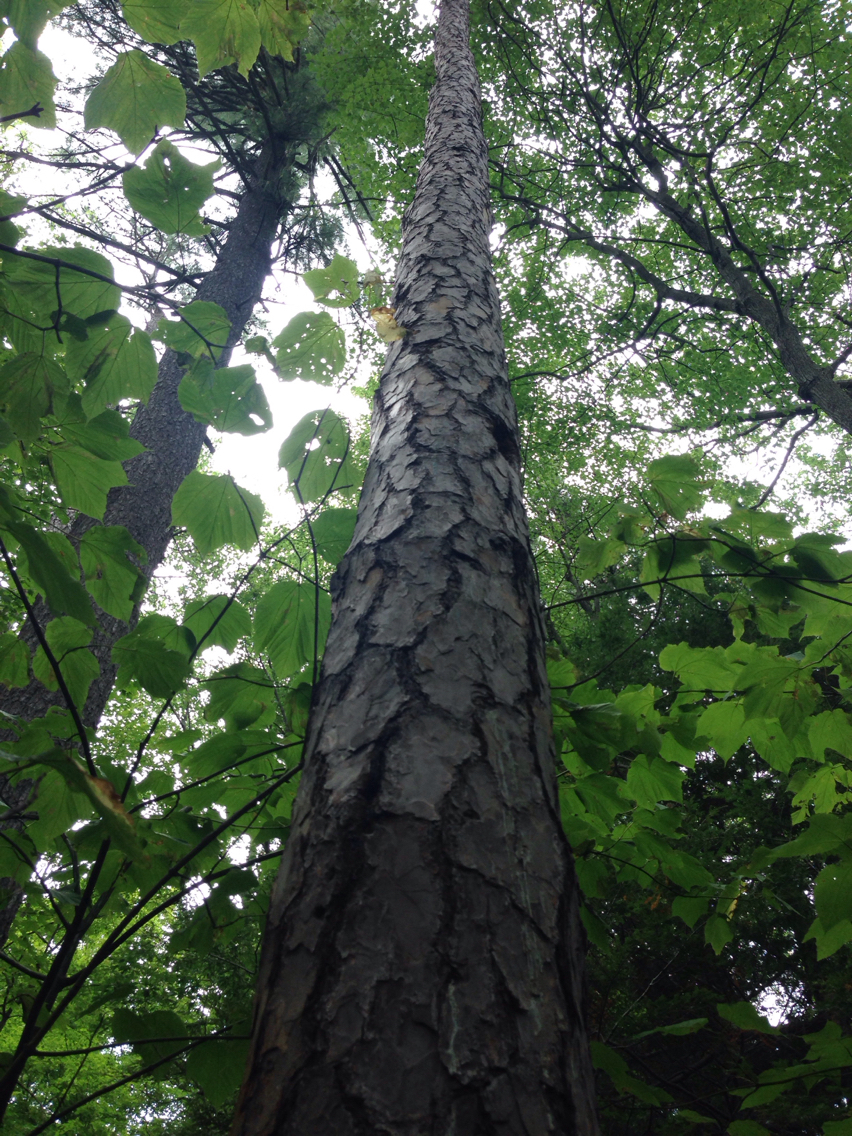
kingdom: Plantae
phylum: Tracheophyta
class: Pinopsida
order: Pinales
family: Pinaceae
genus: Pinus
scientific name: Pinus rigida
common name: Pitch pine
